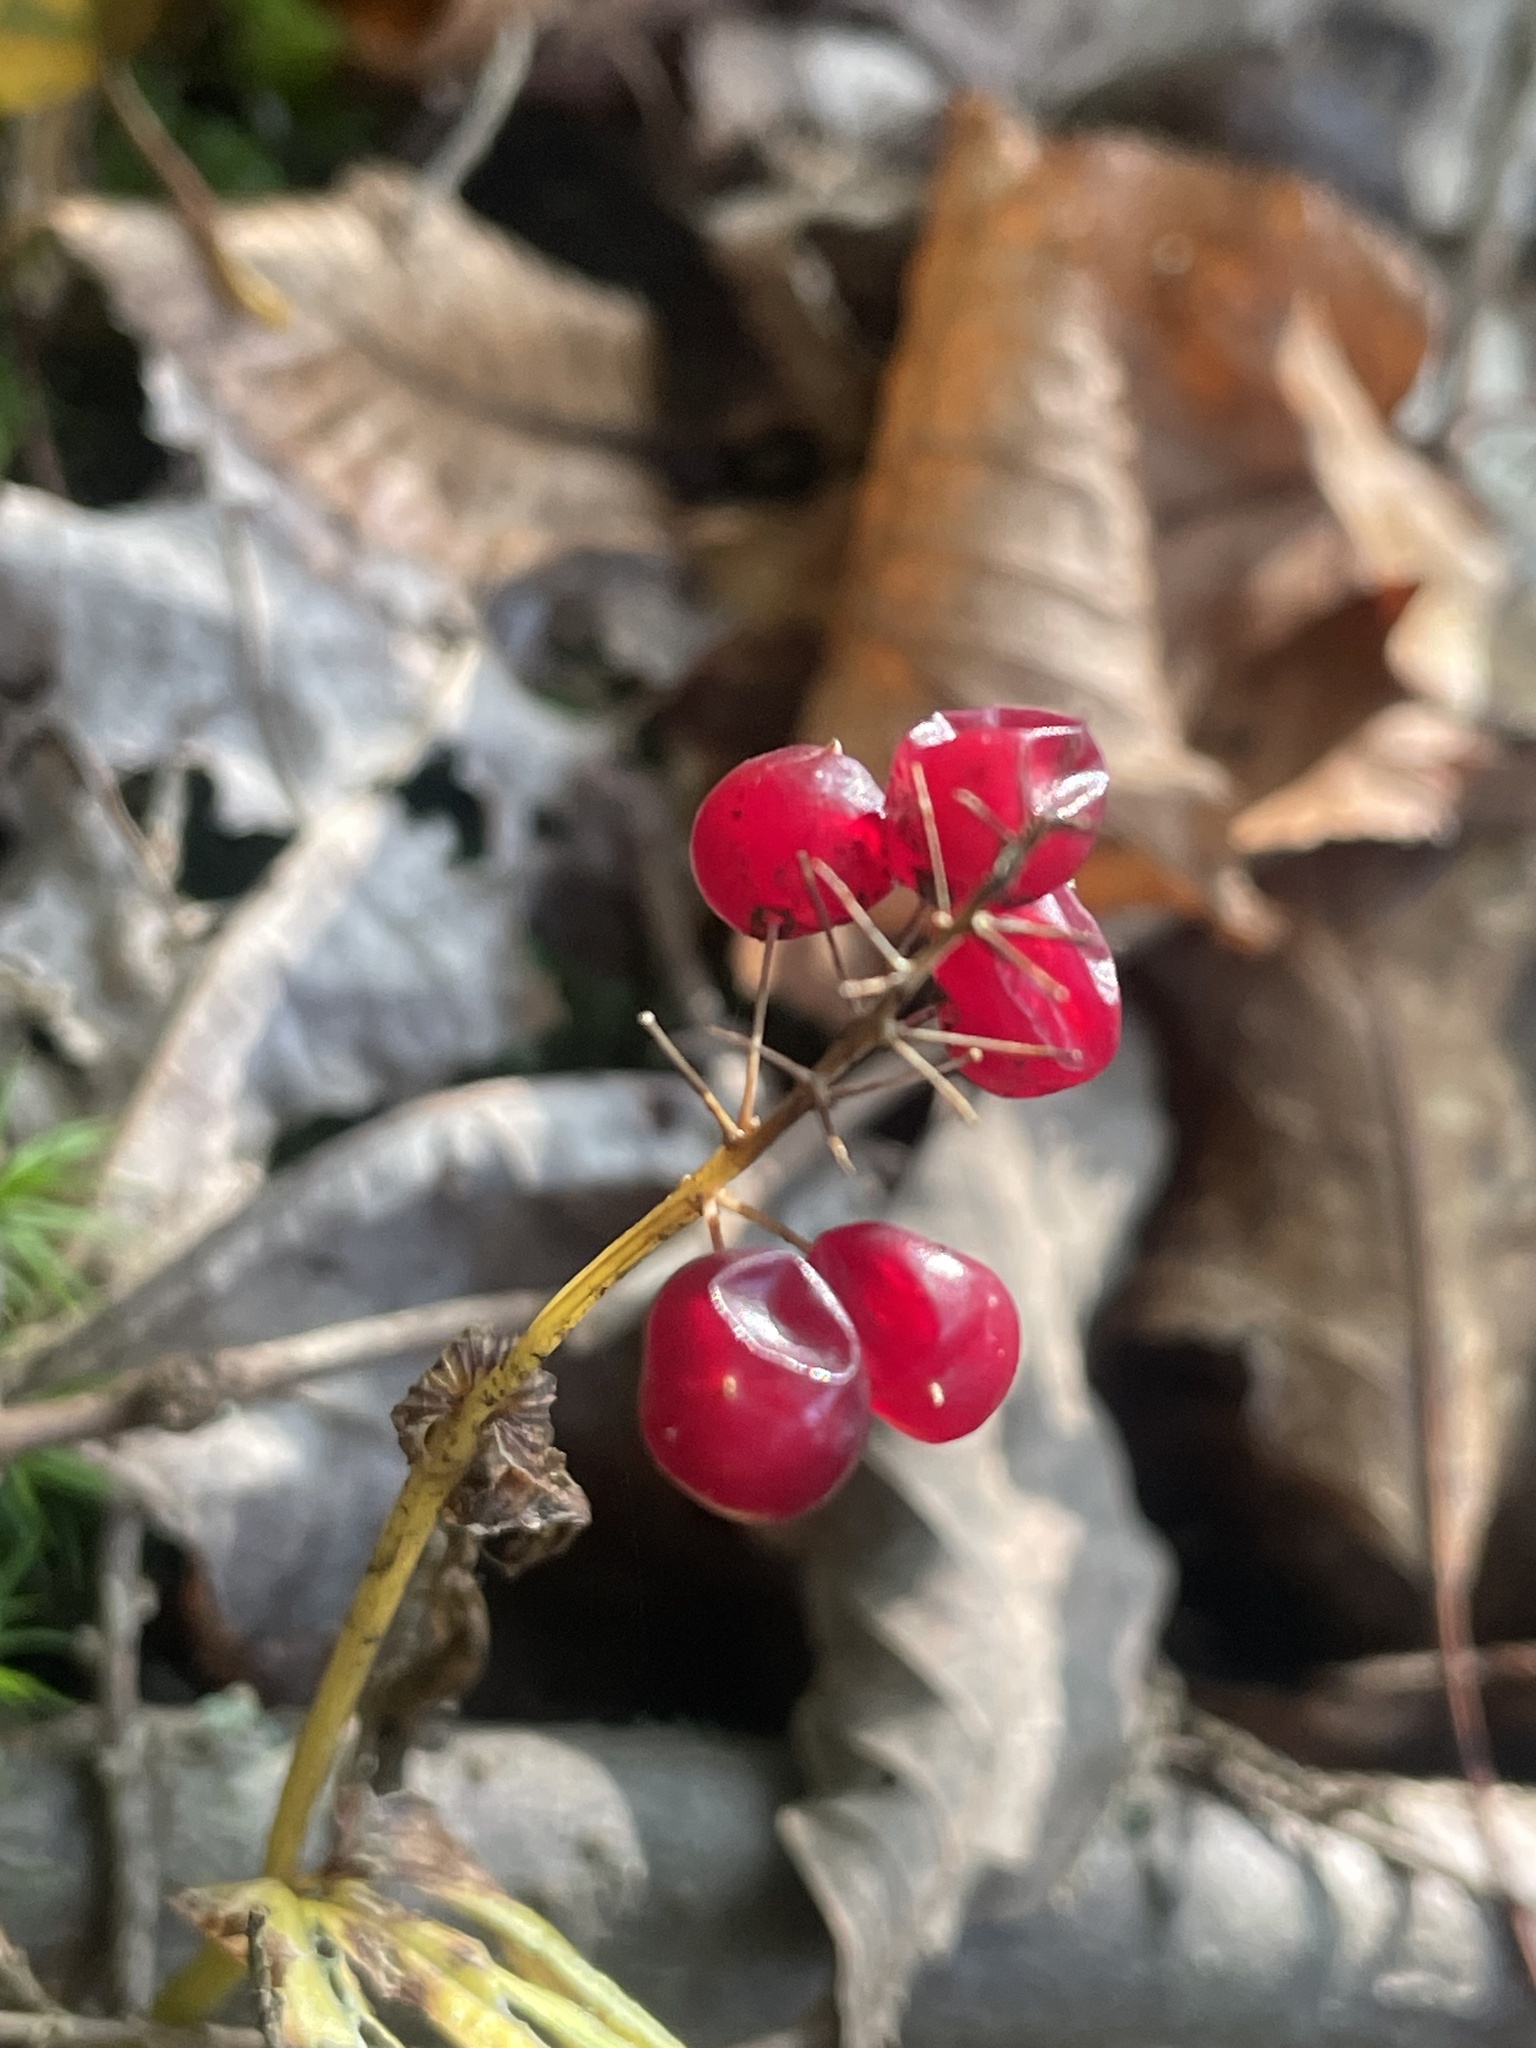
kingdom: Plantae
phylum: Tracheophyta
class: Liliopsida
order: Asparagales
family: Asparagaceae
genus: Maianthemum
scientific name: Maianthemum canadense
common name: False lily-of-the-valley
